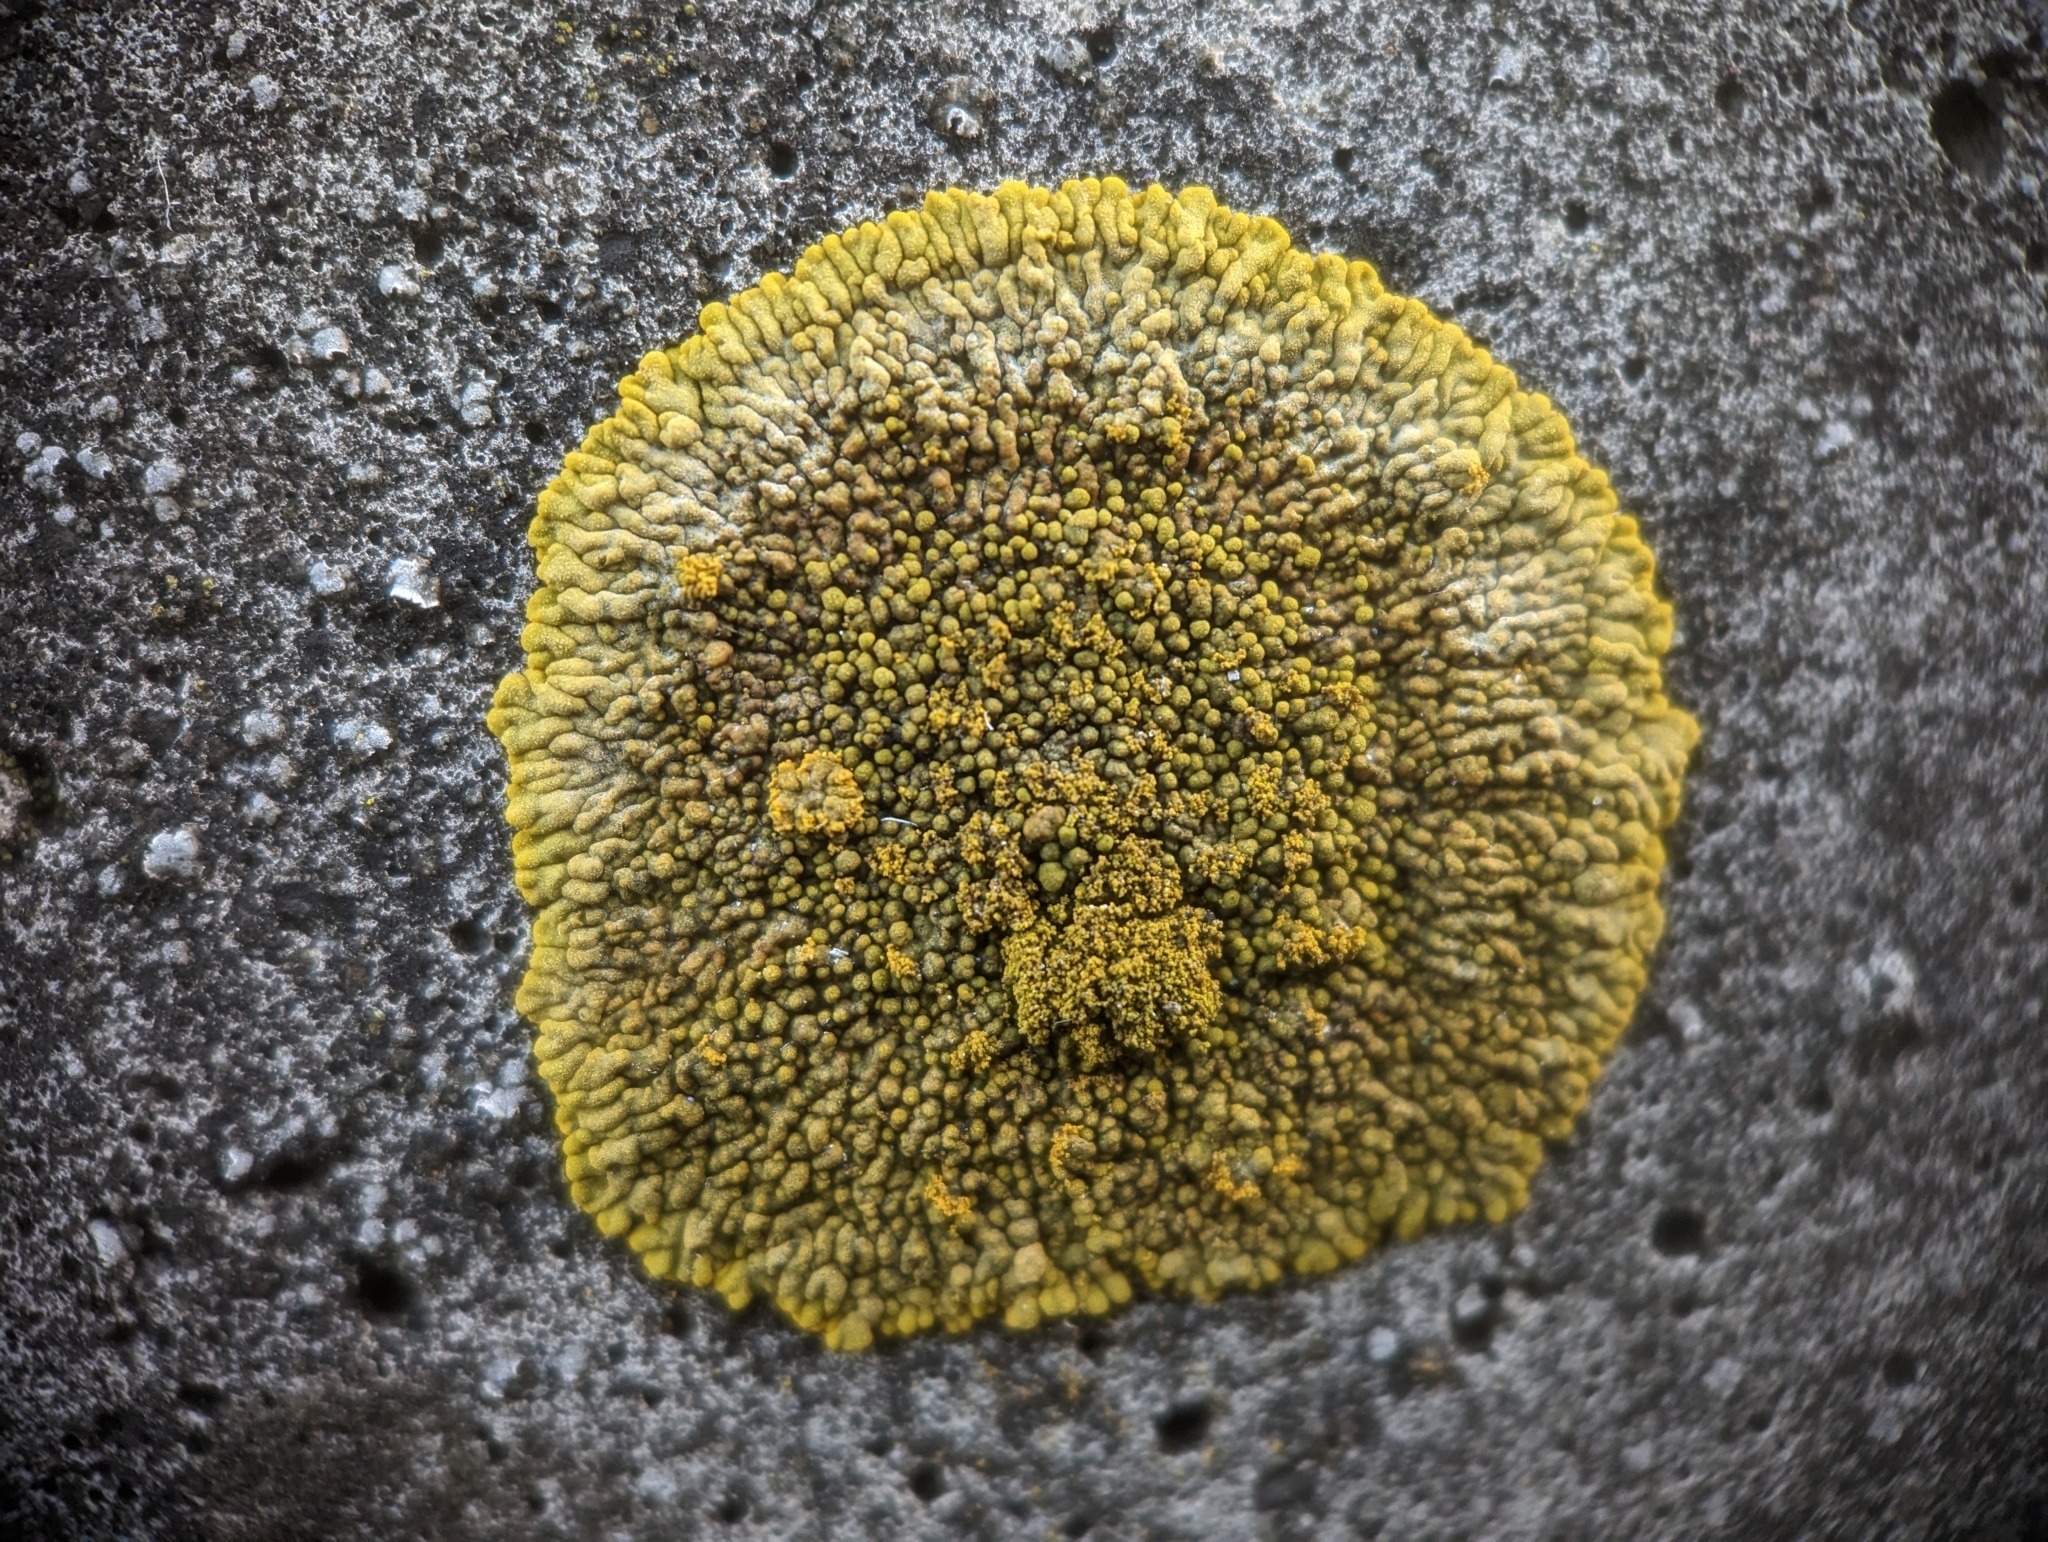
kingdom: Fungi
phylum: Ascomycota
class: Lecanoromycetes
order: Teloschistales
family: Teloschistaceae
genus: Calogaya
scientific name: Calogaya decipiens
